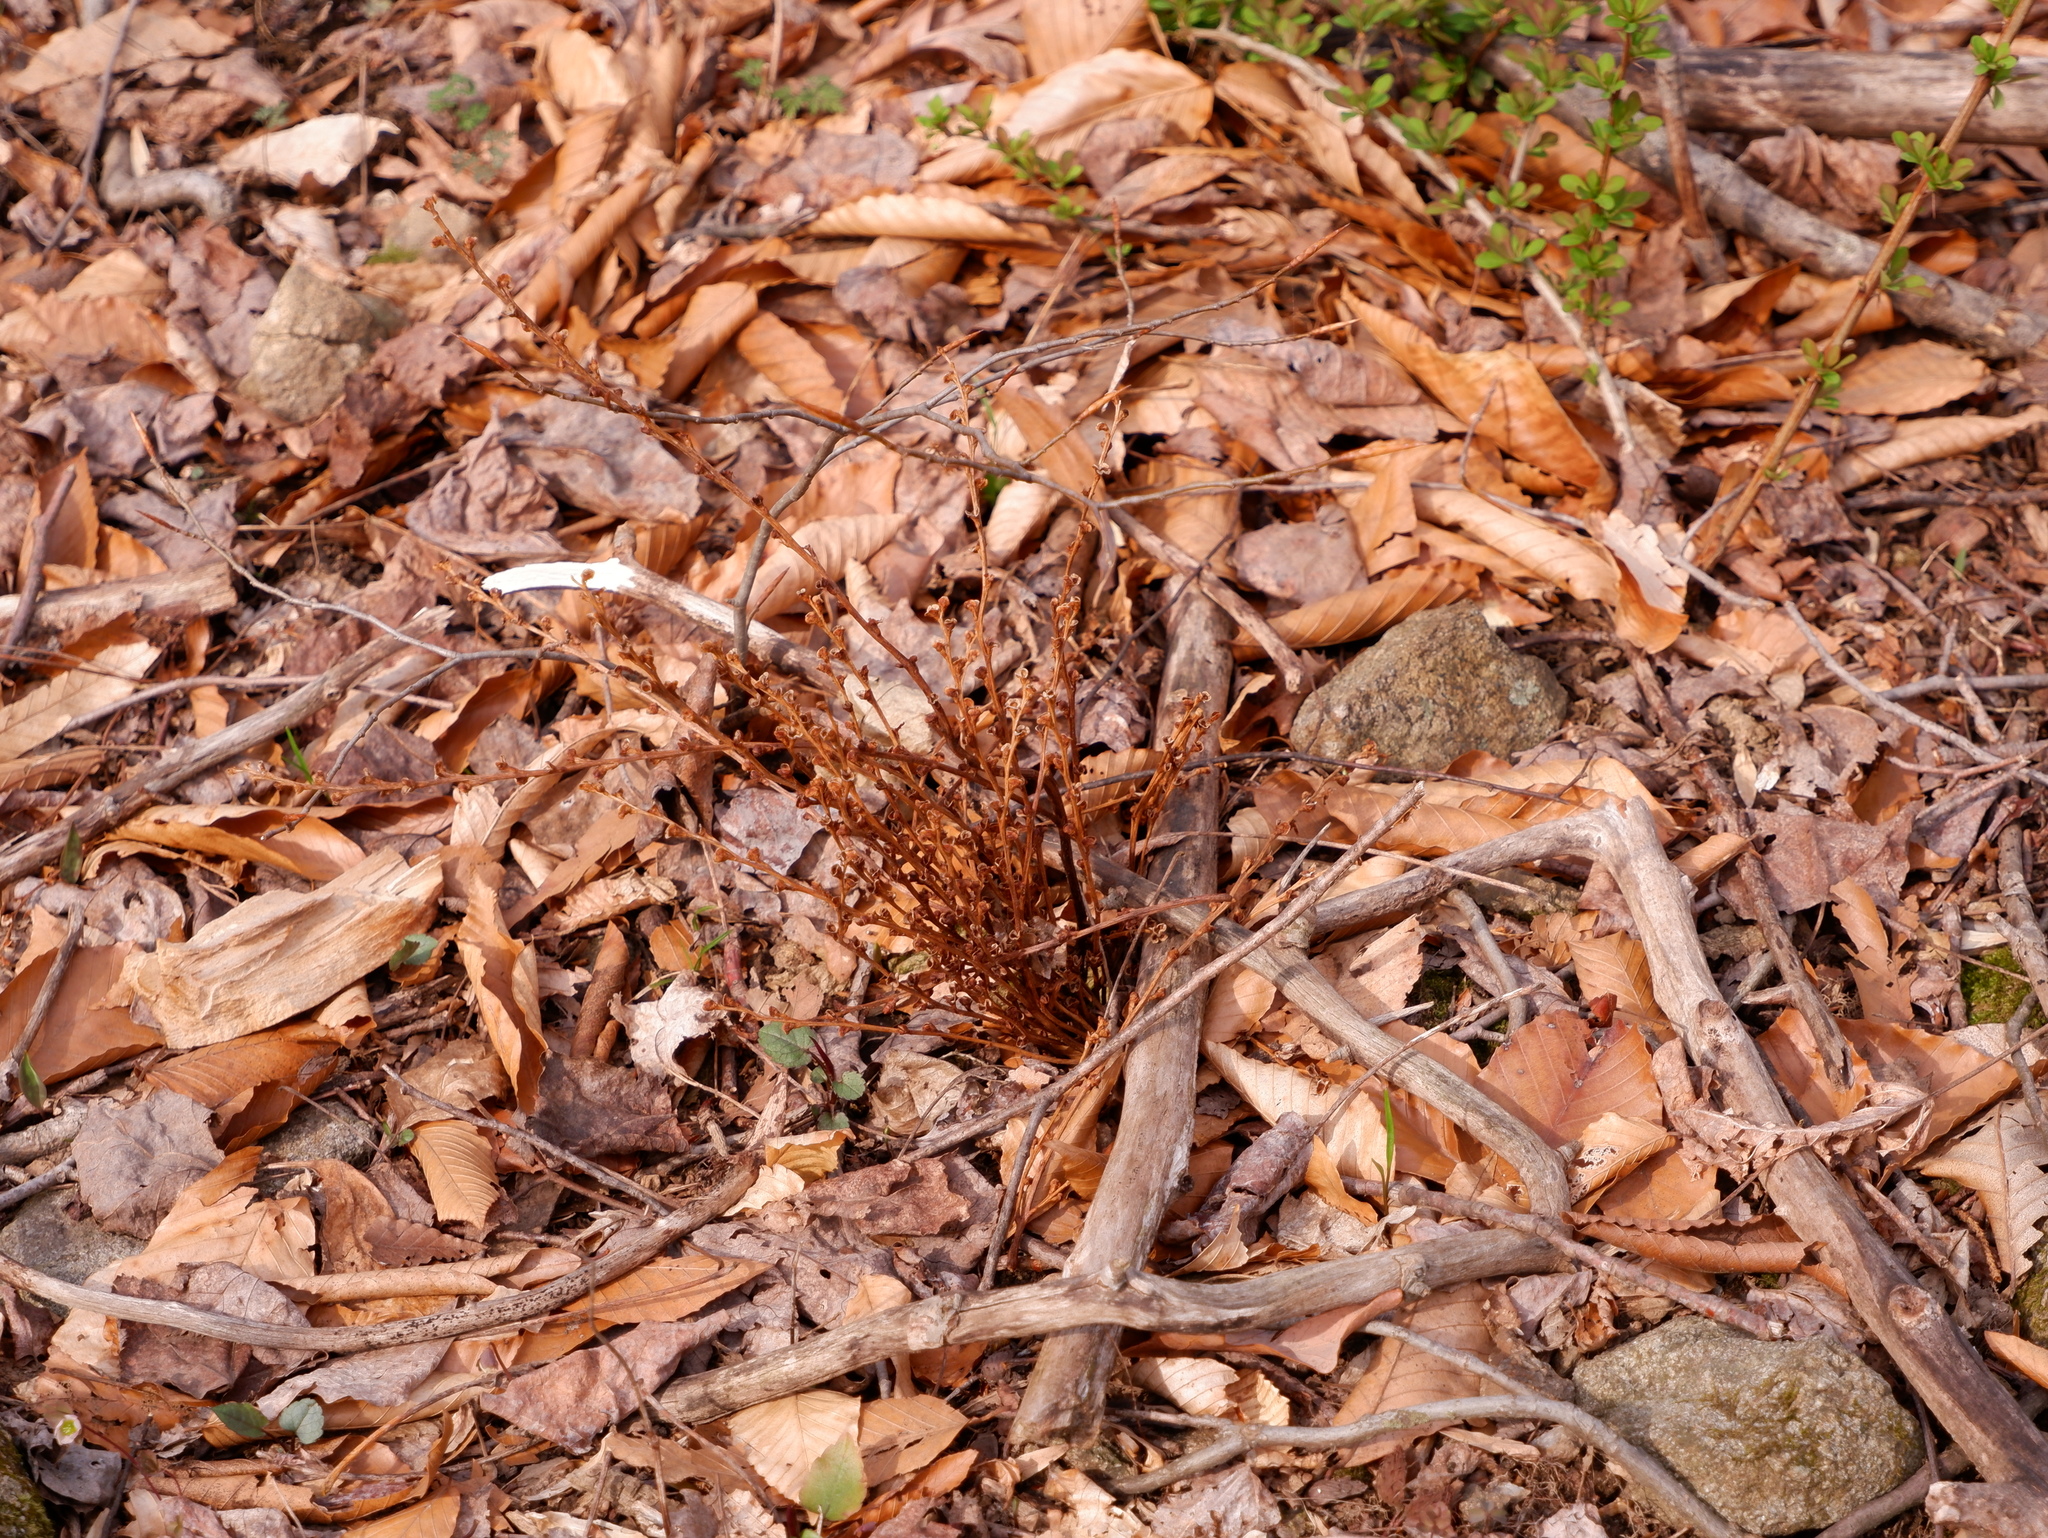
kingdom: Plantae
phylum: Tracheophyta
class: Magnoliopsida
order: Lamiales
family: Orobanchaceae
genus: Epifagus
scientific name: Epifagus virginiana
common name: Beechdrops
